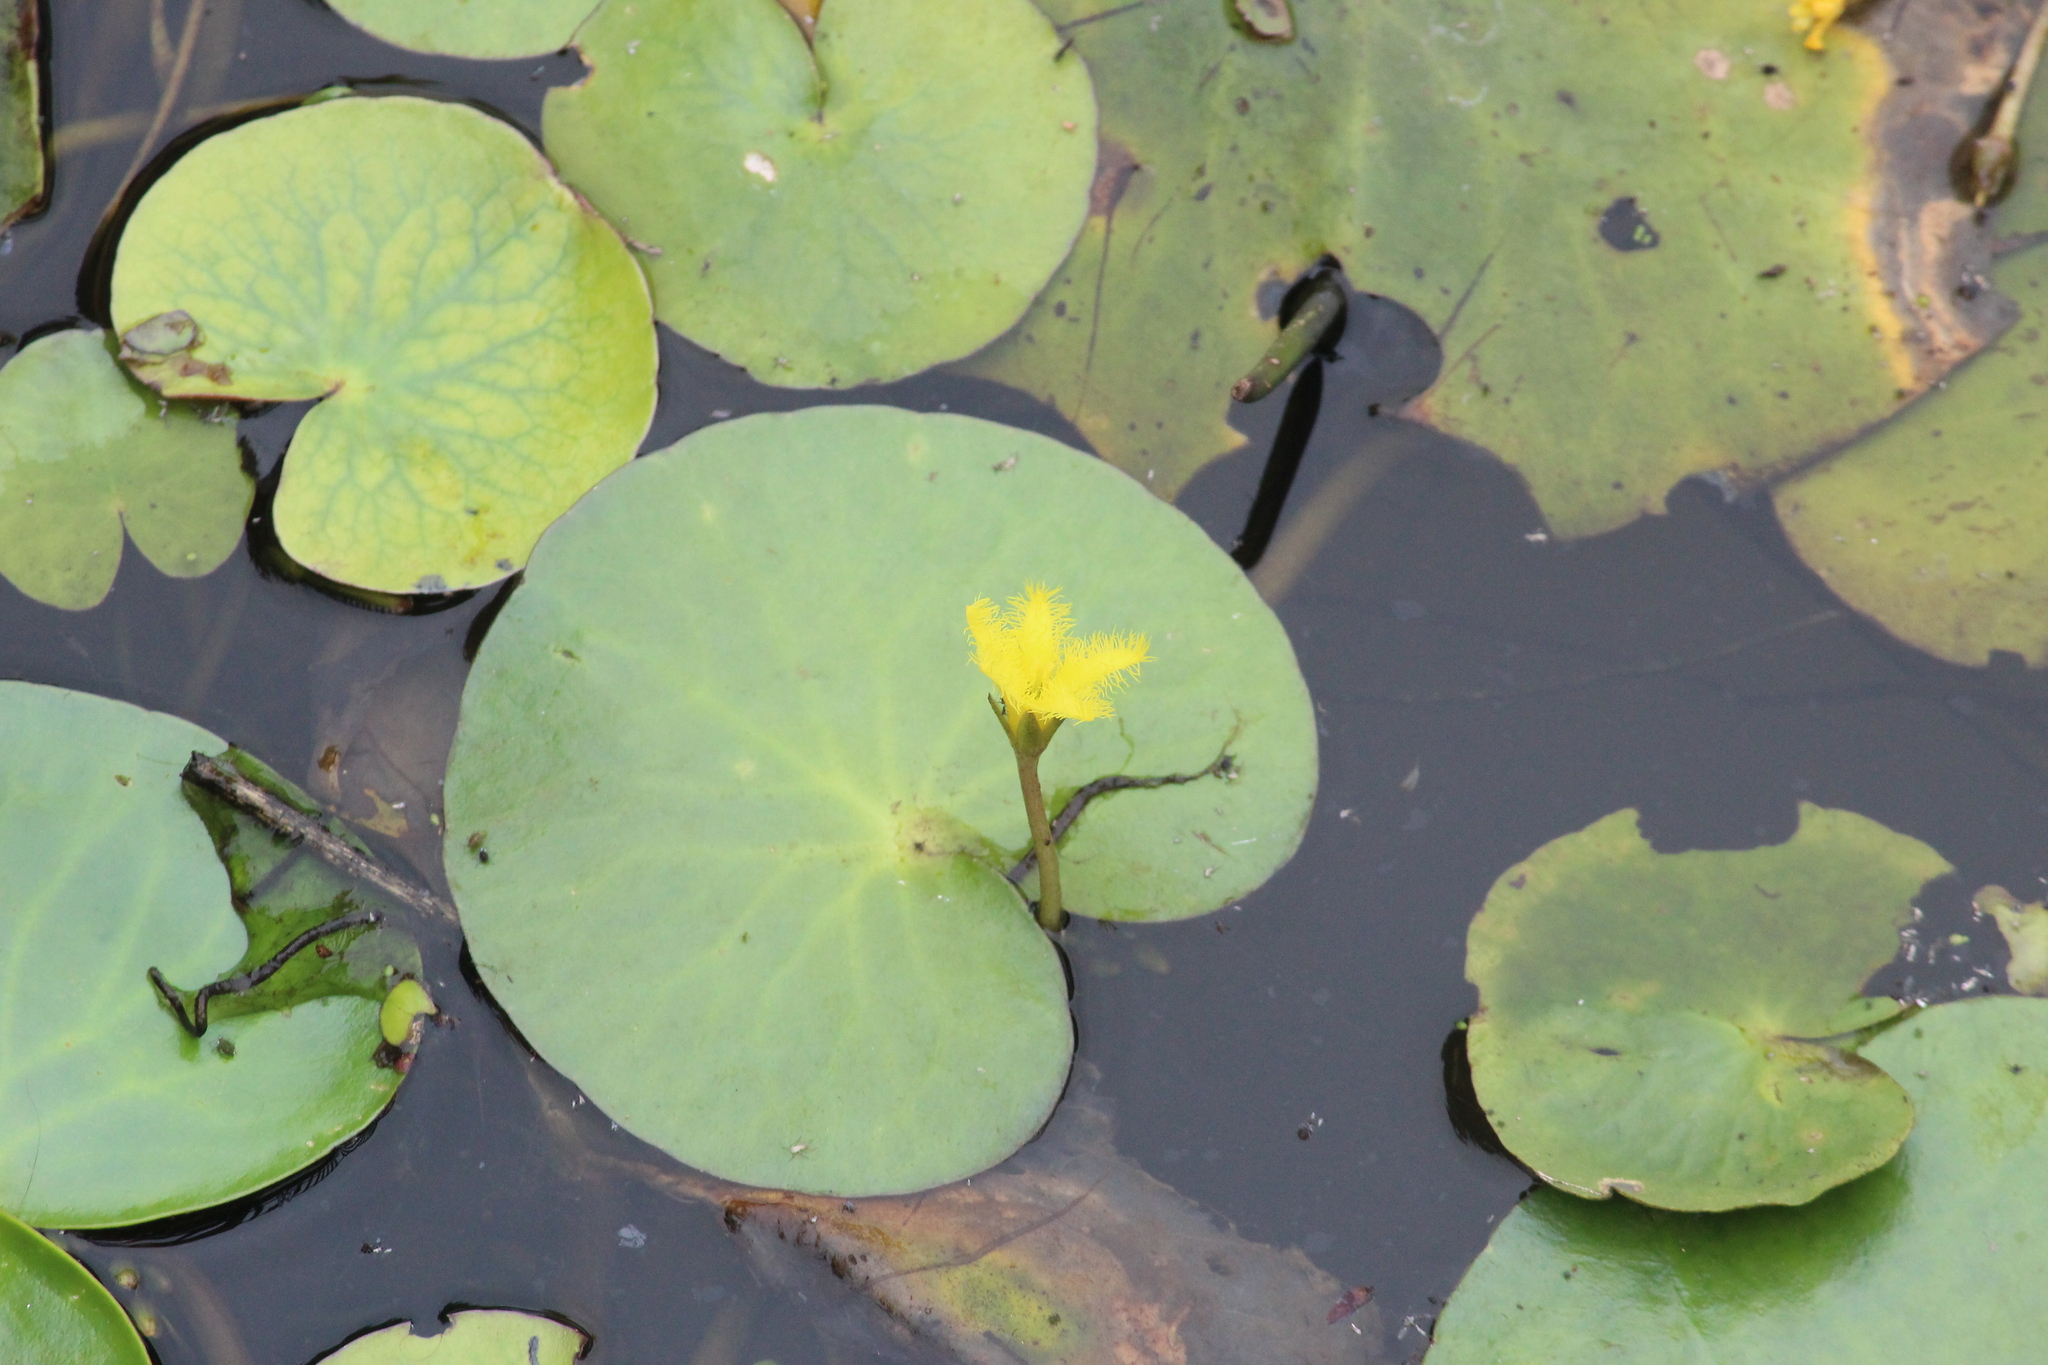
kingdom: Plantae
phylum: Tracheophyta
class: Magnoliopsida
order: Asterales
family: Menyanthaceae
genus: Nymphoides
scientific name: Nymphoides thunbergiana
